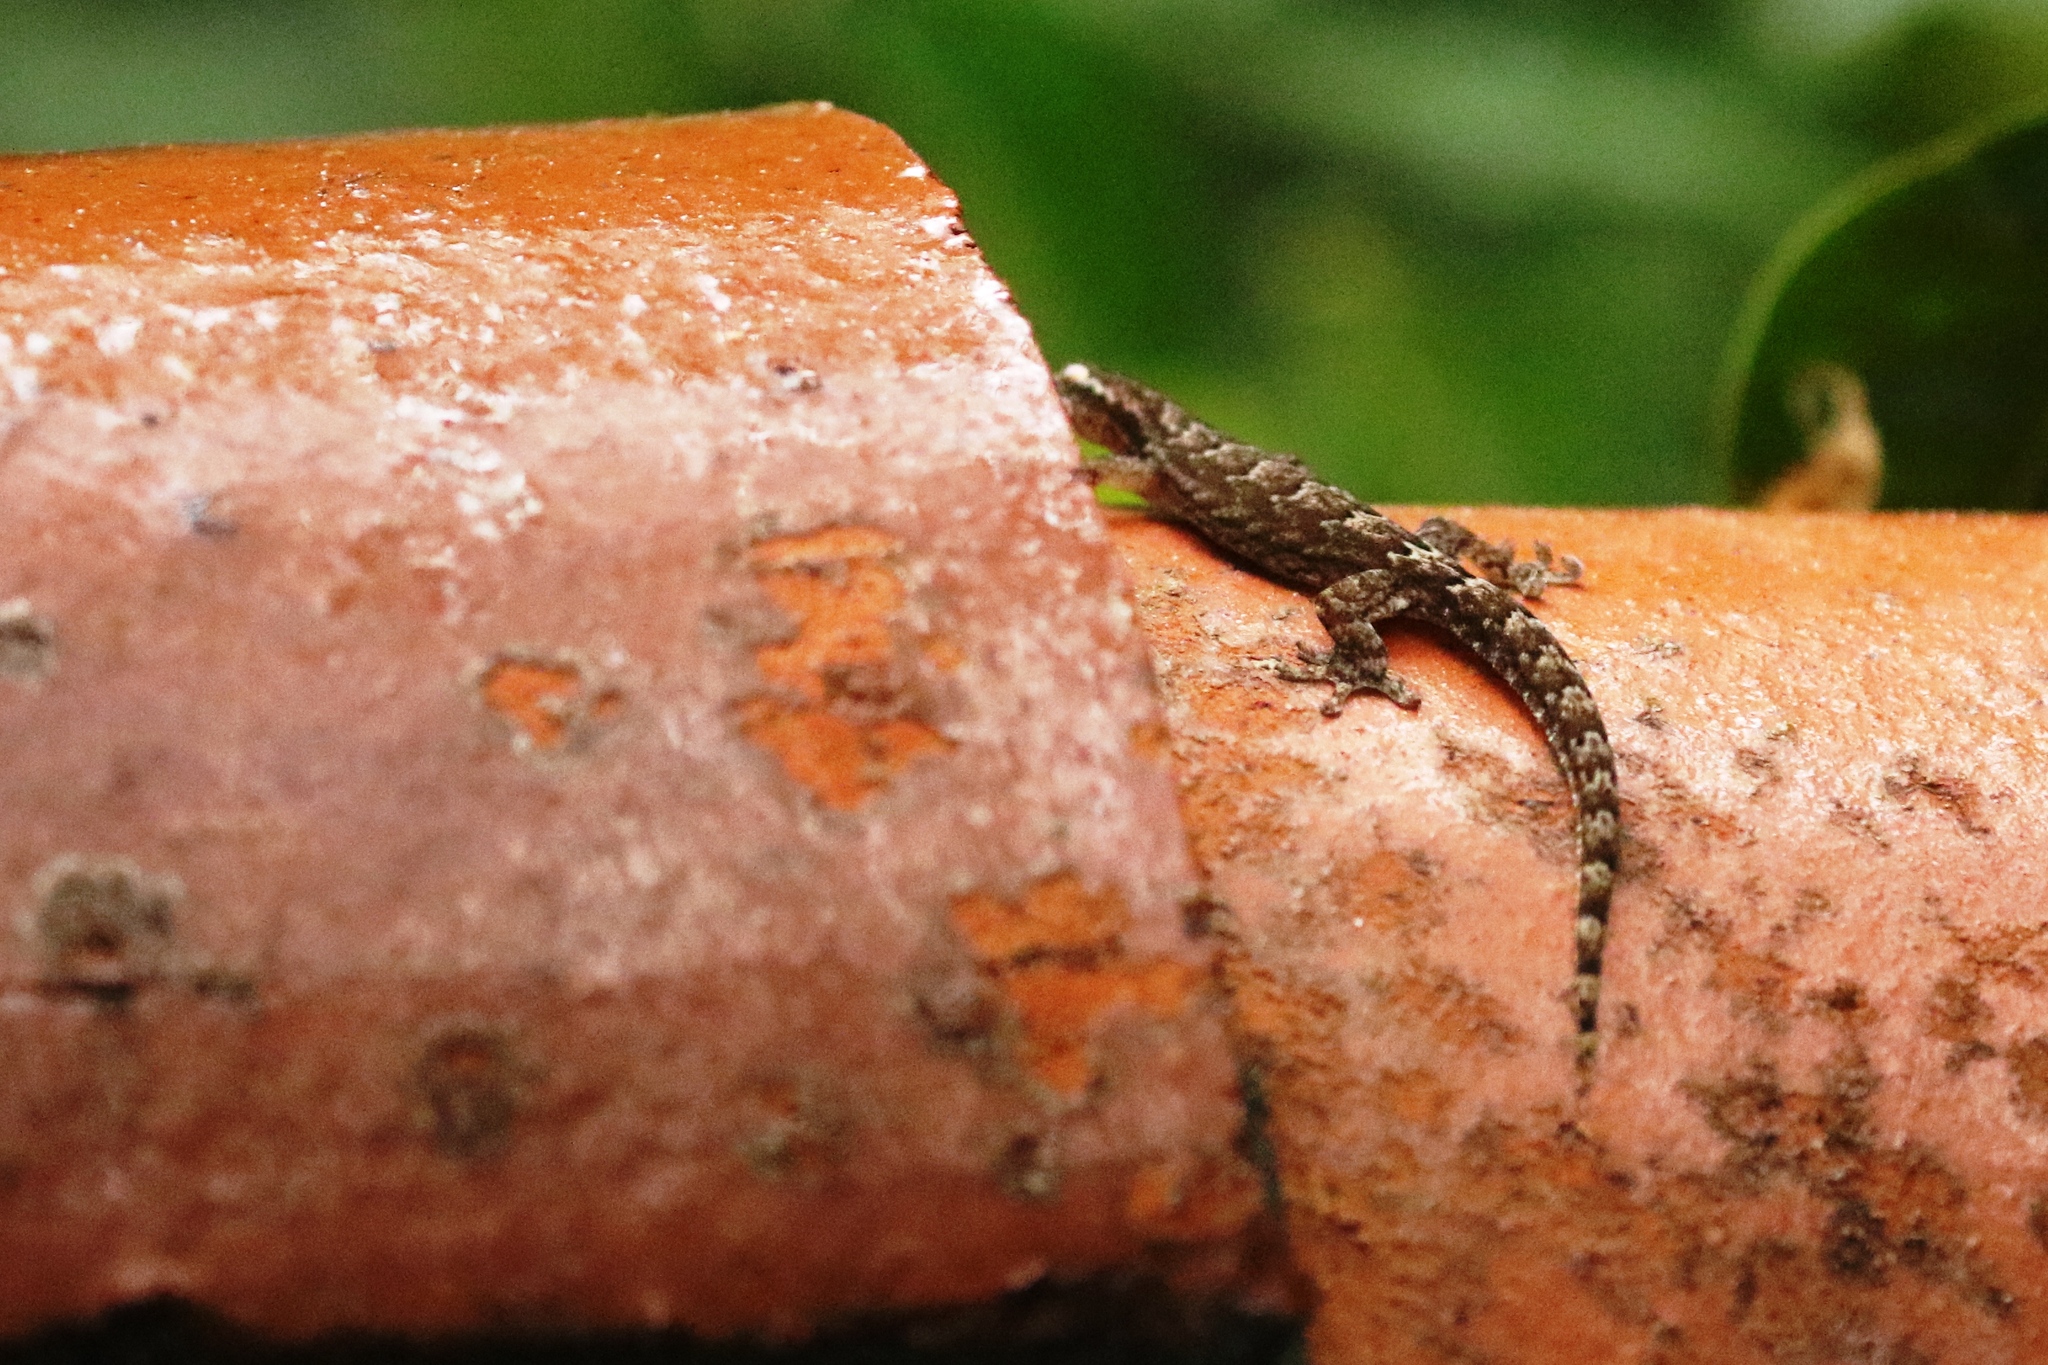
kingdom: Animalia
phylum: Chordata
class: Squamata
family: Gekkonidae
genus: Lepidodactylus
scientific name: Lepidodactylus lugubris
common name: Mourning gecko
